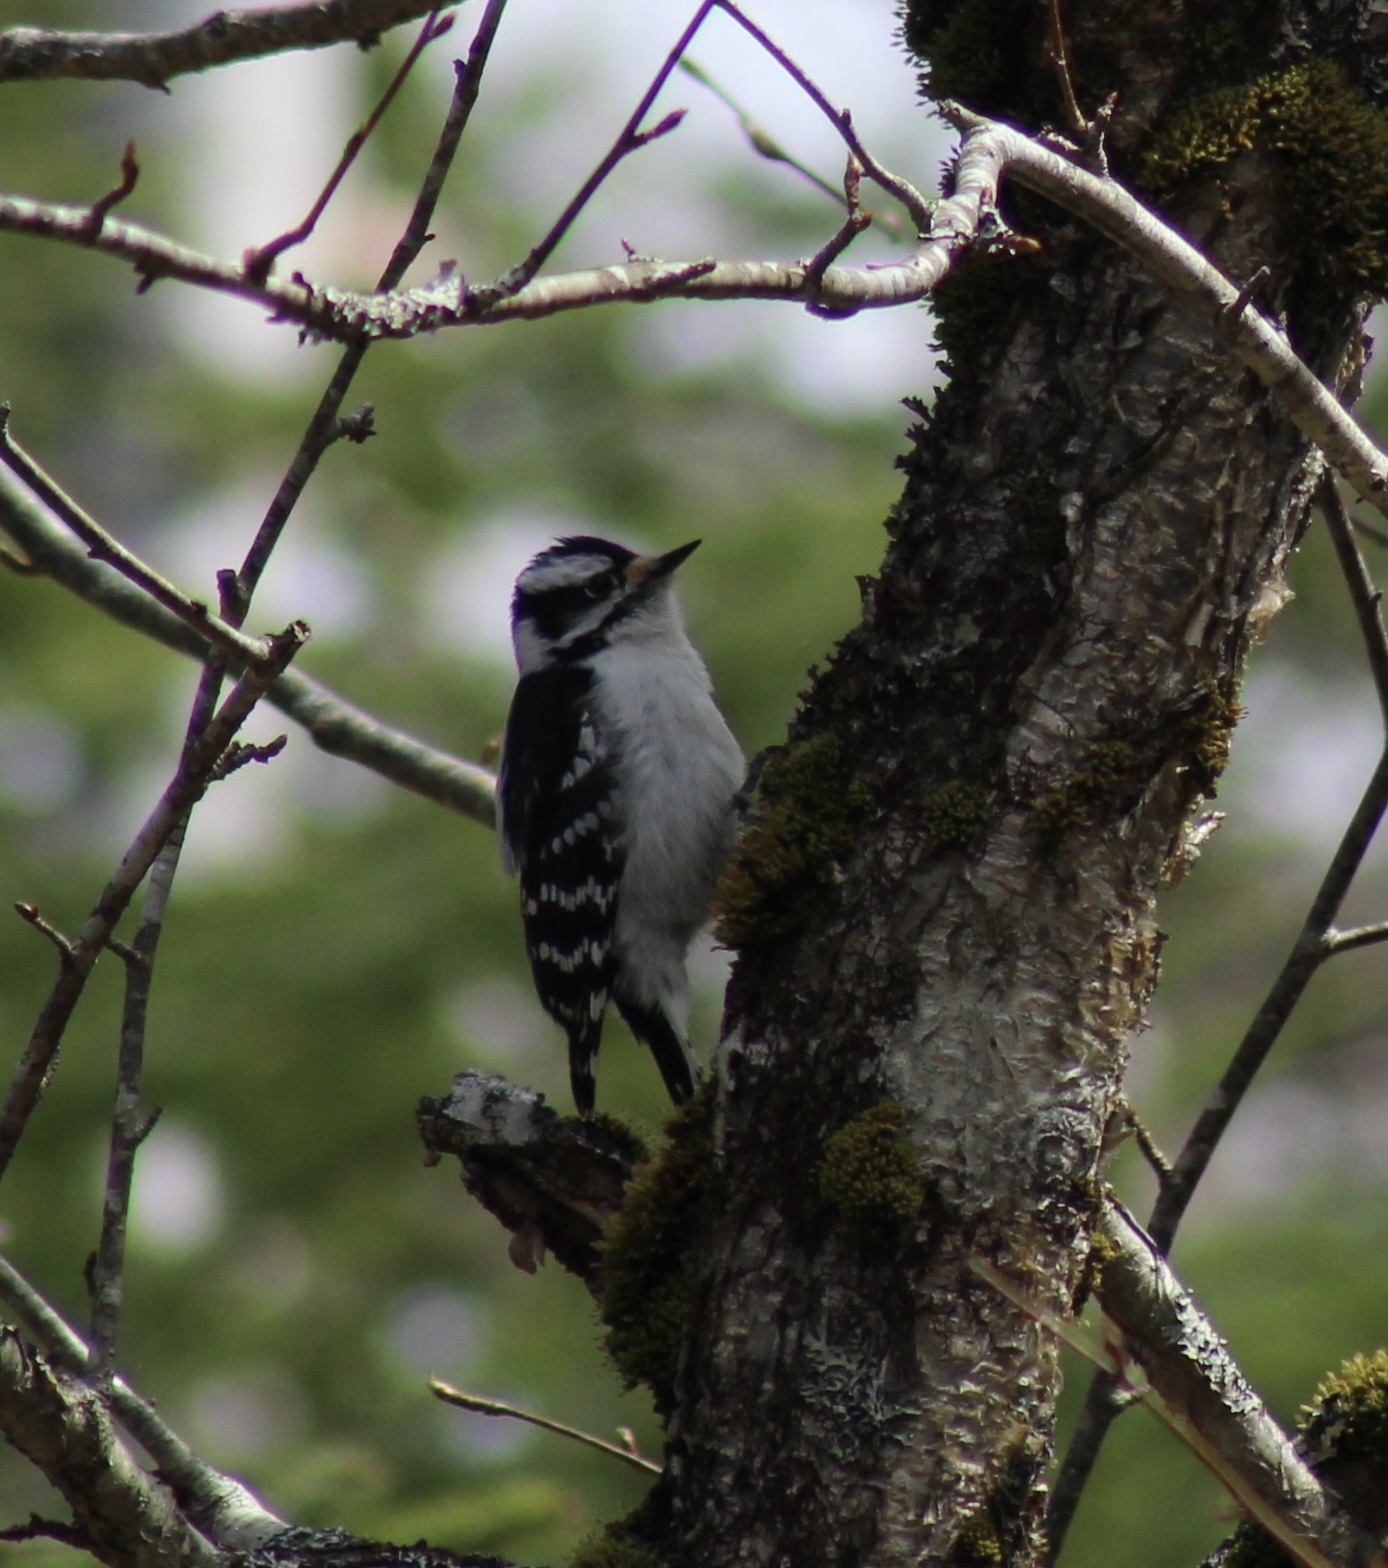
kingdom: Animalia
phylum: Chordata
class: Aves
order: Piciformes
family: Picidae
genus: Dryobates
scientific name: Dryobates pubescens
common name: Downy woodpecker
